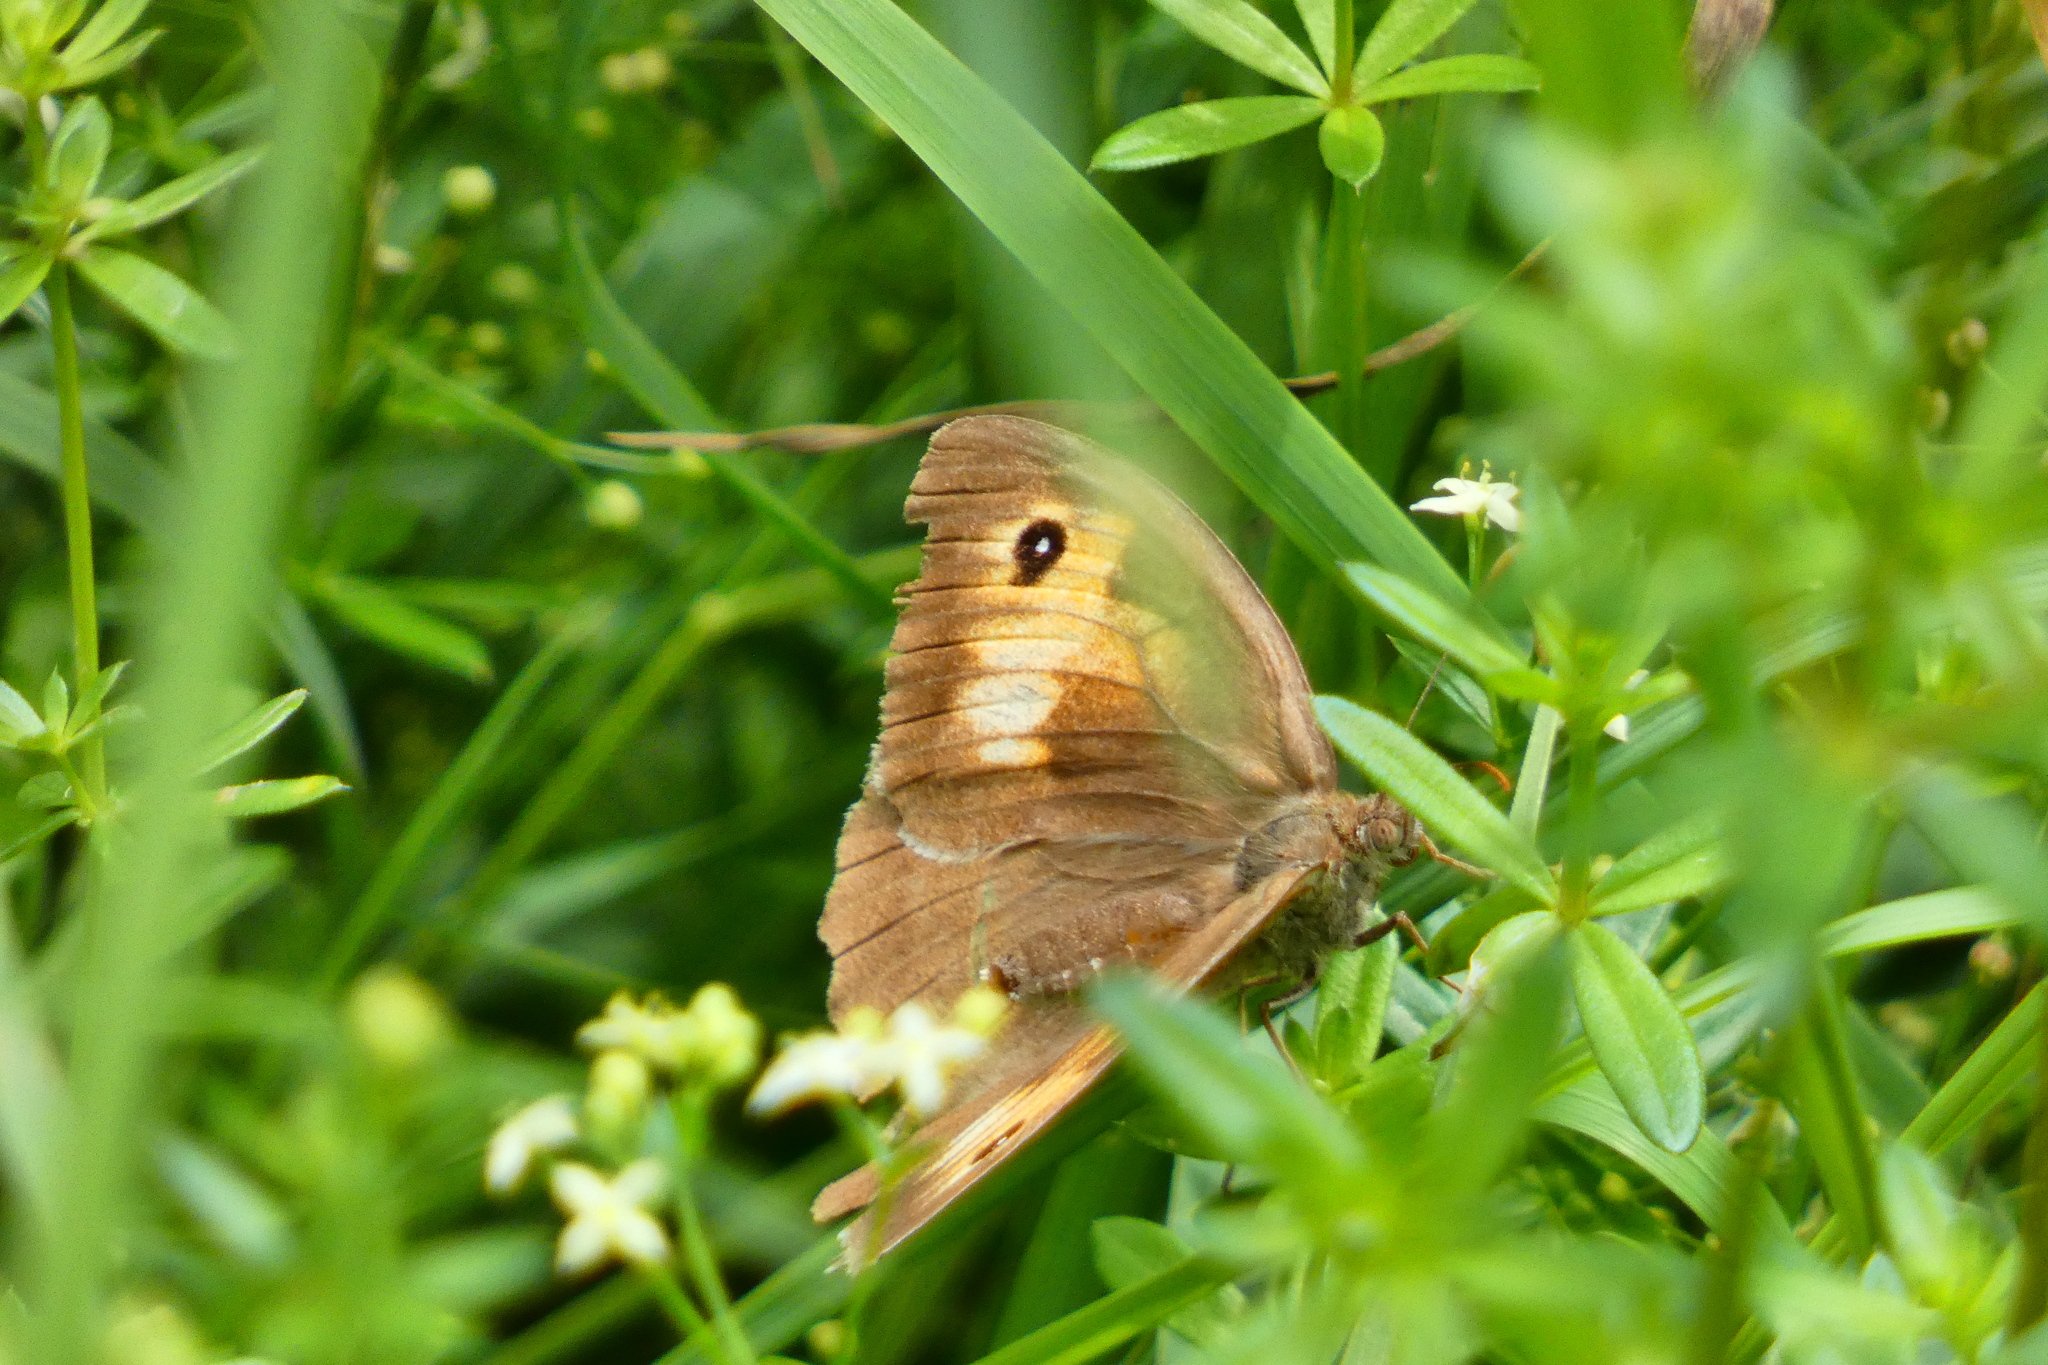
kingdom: Animalia
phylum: Arthropoda
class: Insecta
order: Lepidoptera
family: Nymphalidae
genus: Maniola
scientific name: Maniola jurtina
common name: Meadow brown
